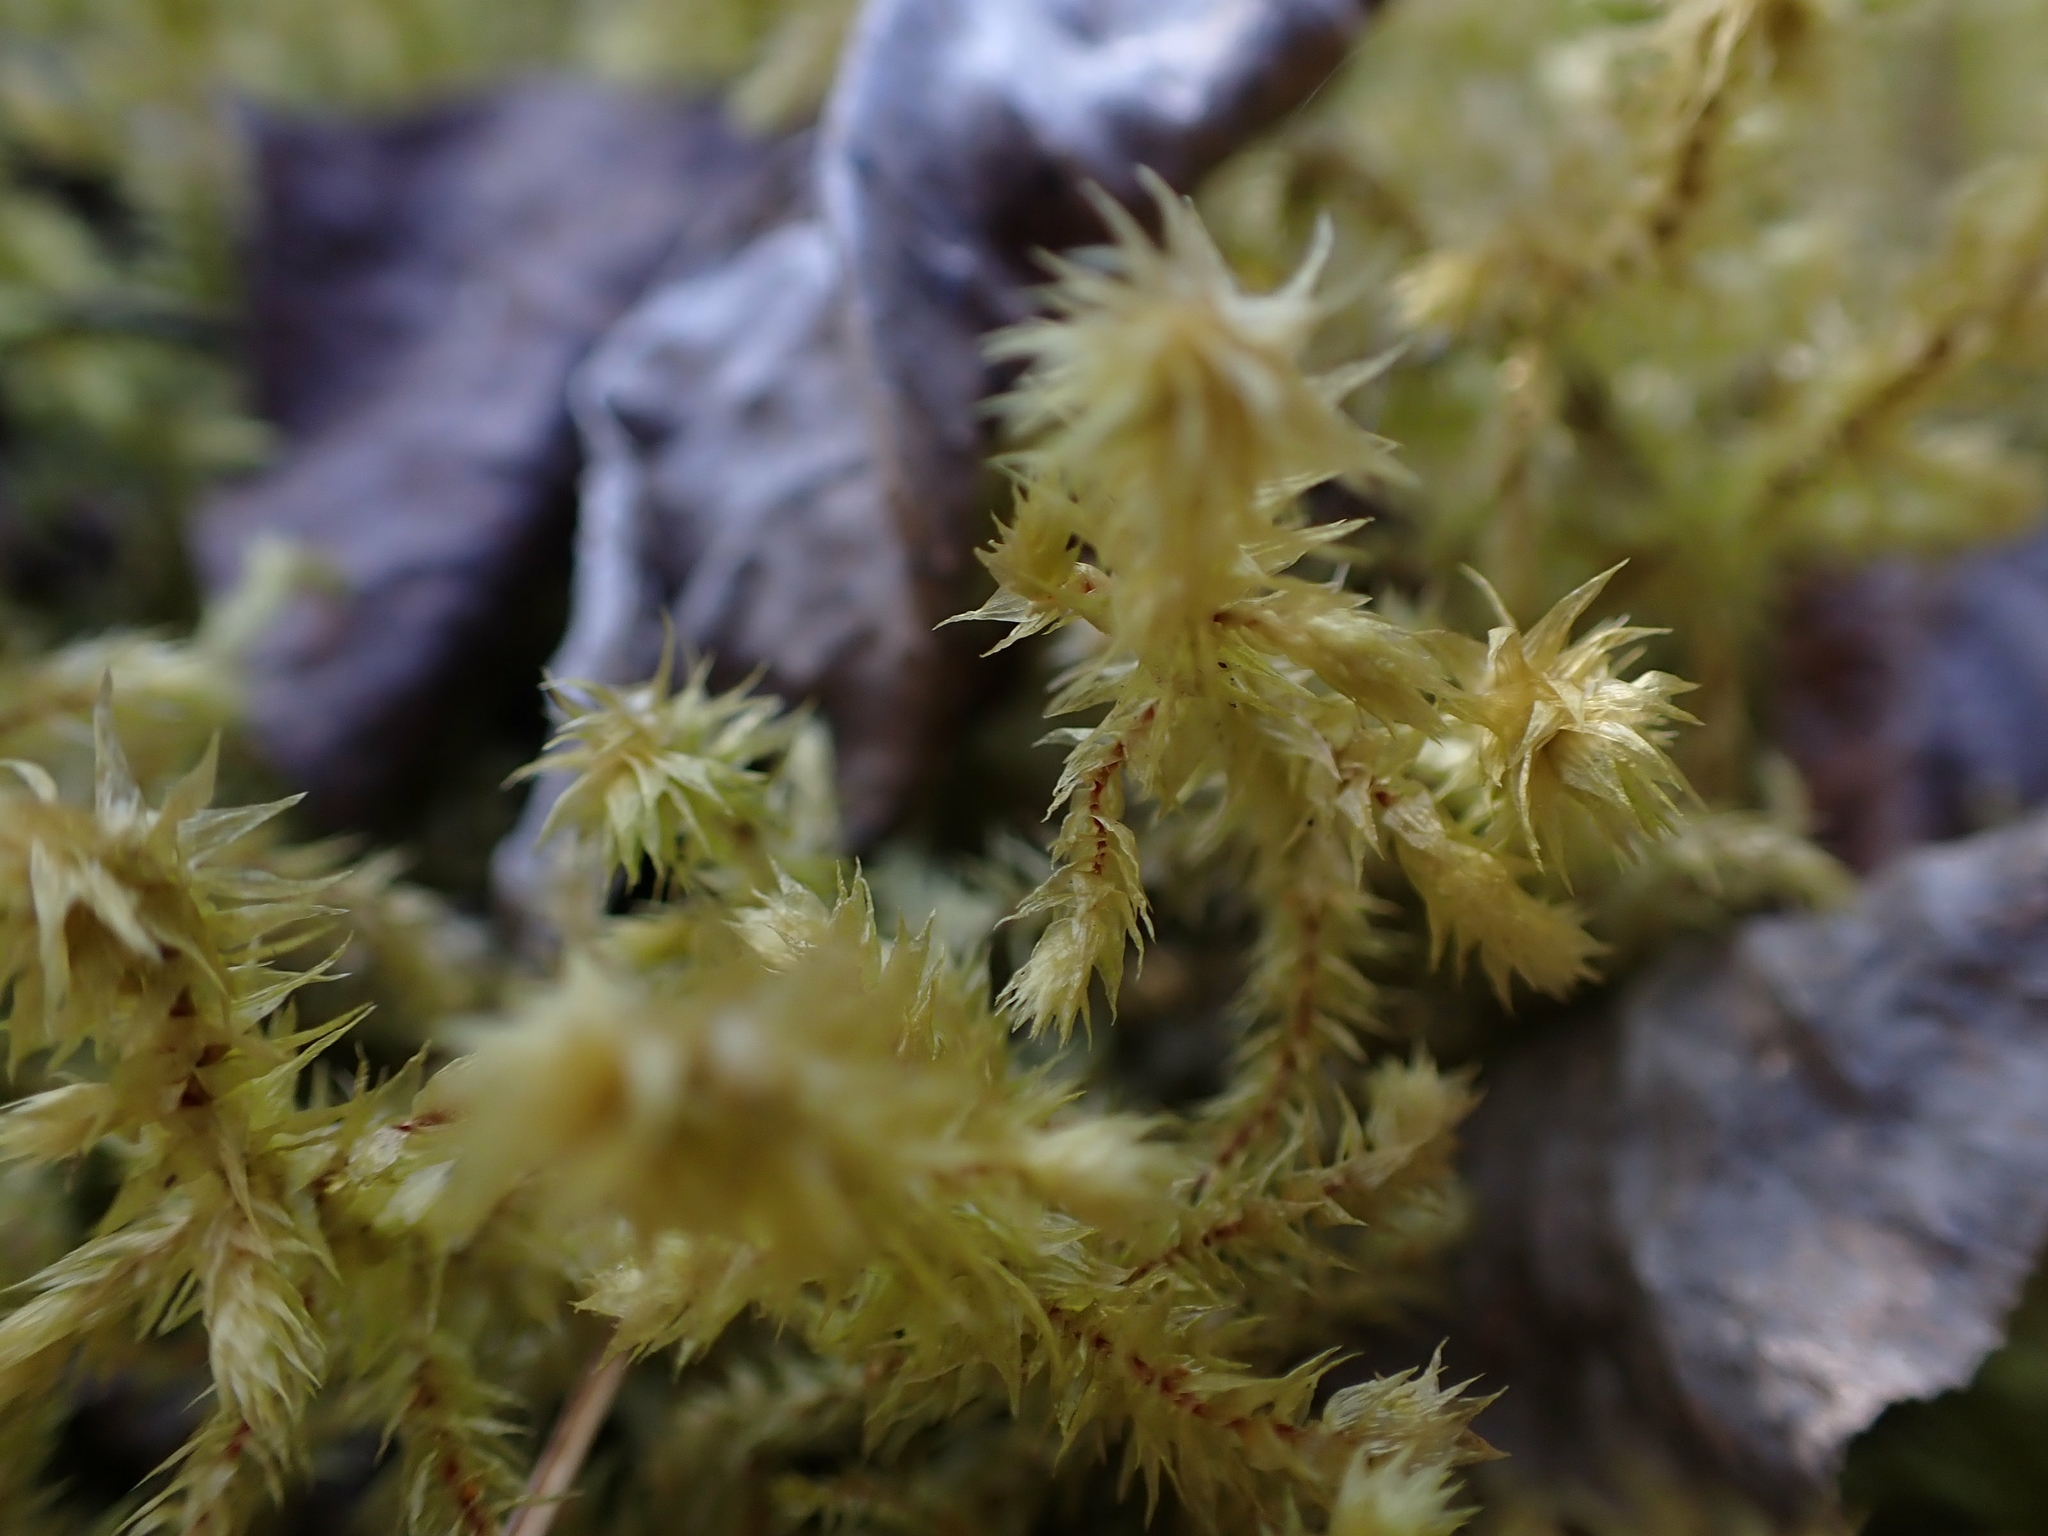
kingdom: Plantae
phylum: Bryophyta
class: Bryopsida
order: Hypnales
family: Hylocomiaceae
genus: Hylocomiadelphus
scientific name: Hylocomiadelphus triquetrus
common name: Rough goose neck moss
